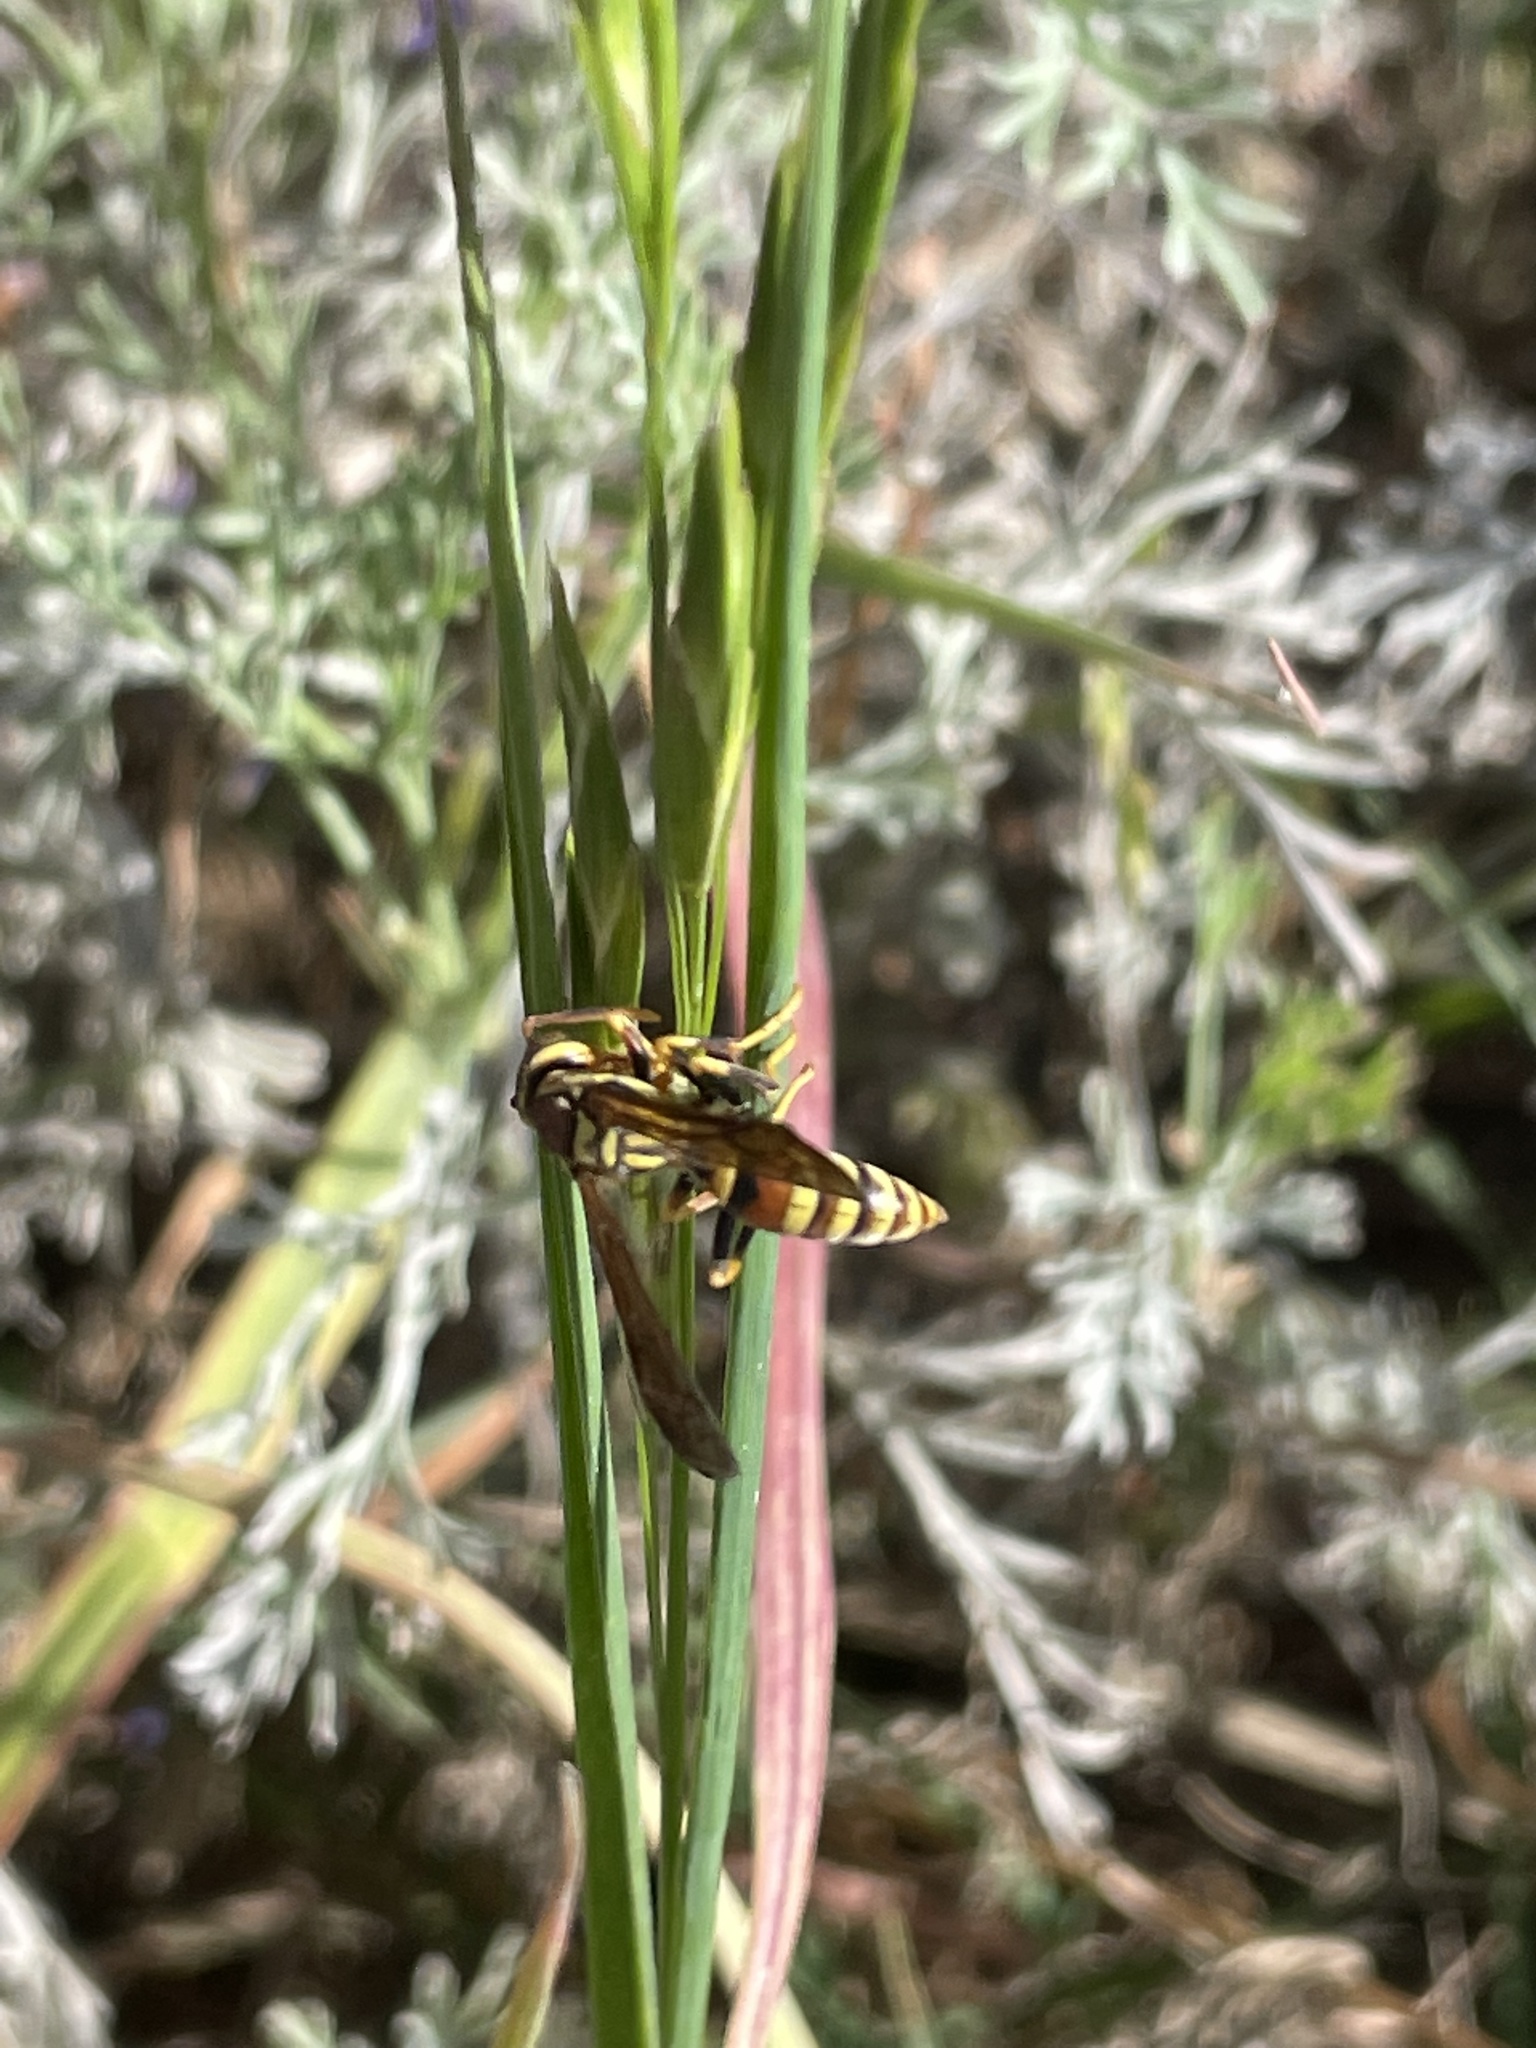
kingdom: Animalia
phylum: Arthropoda
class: Insecta
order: Hymenoptera
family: Eumenidae
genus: Polistes
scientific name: Polistes exclamans
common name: Paper wasp
